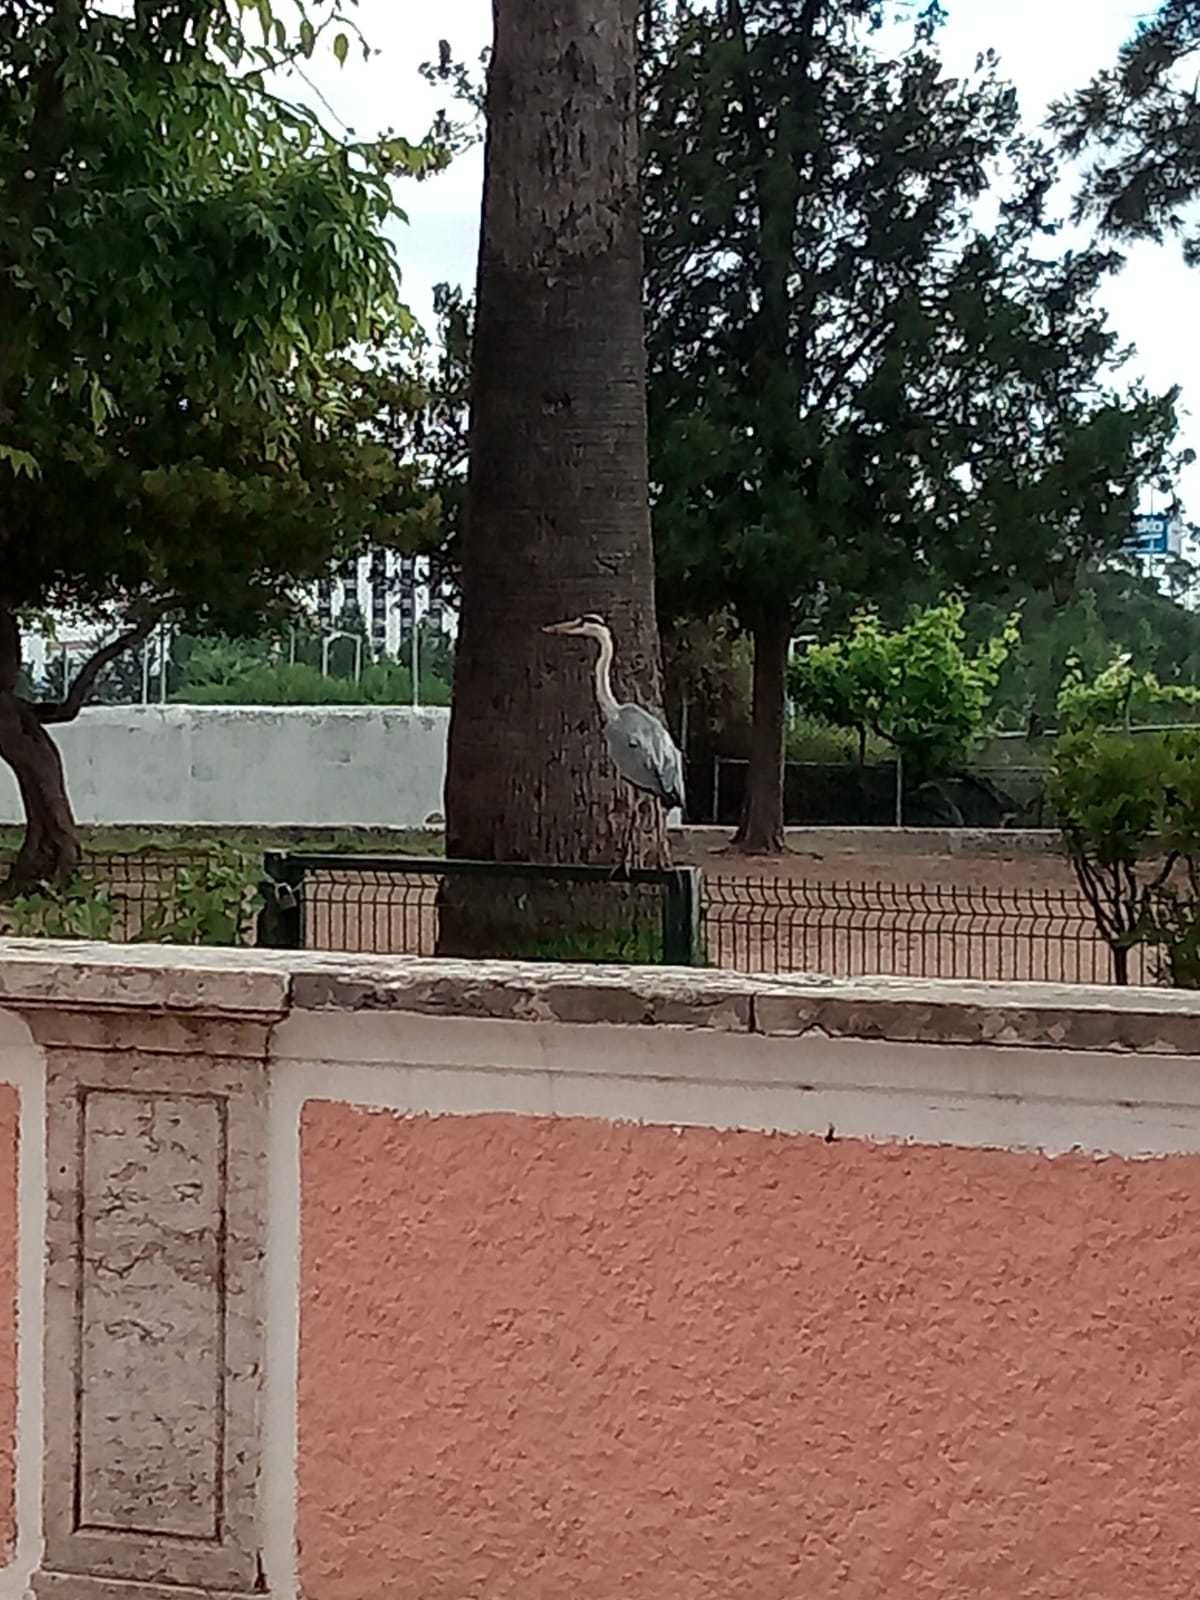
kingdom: Animalia
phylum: Chordata
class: Aves
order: Pelecaniformes
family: Ardeidae
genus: Ardea
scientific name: Ardea cinerea
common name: Grey heron
